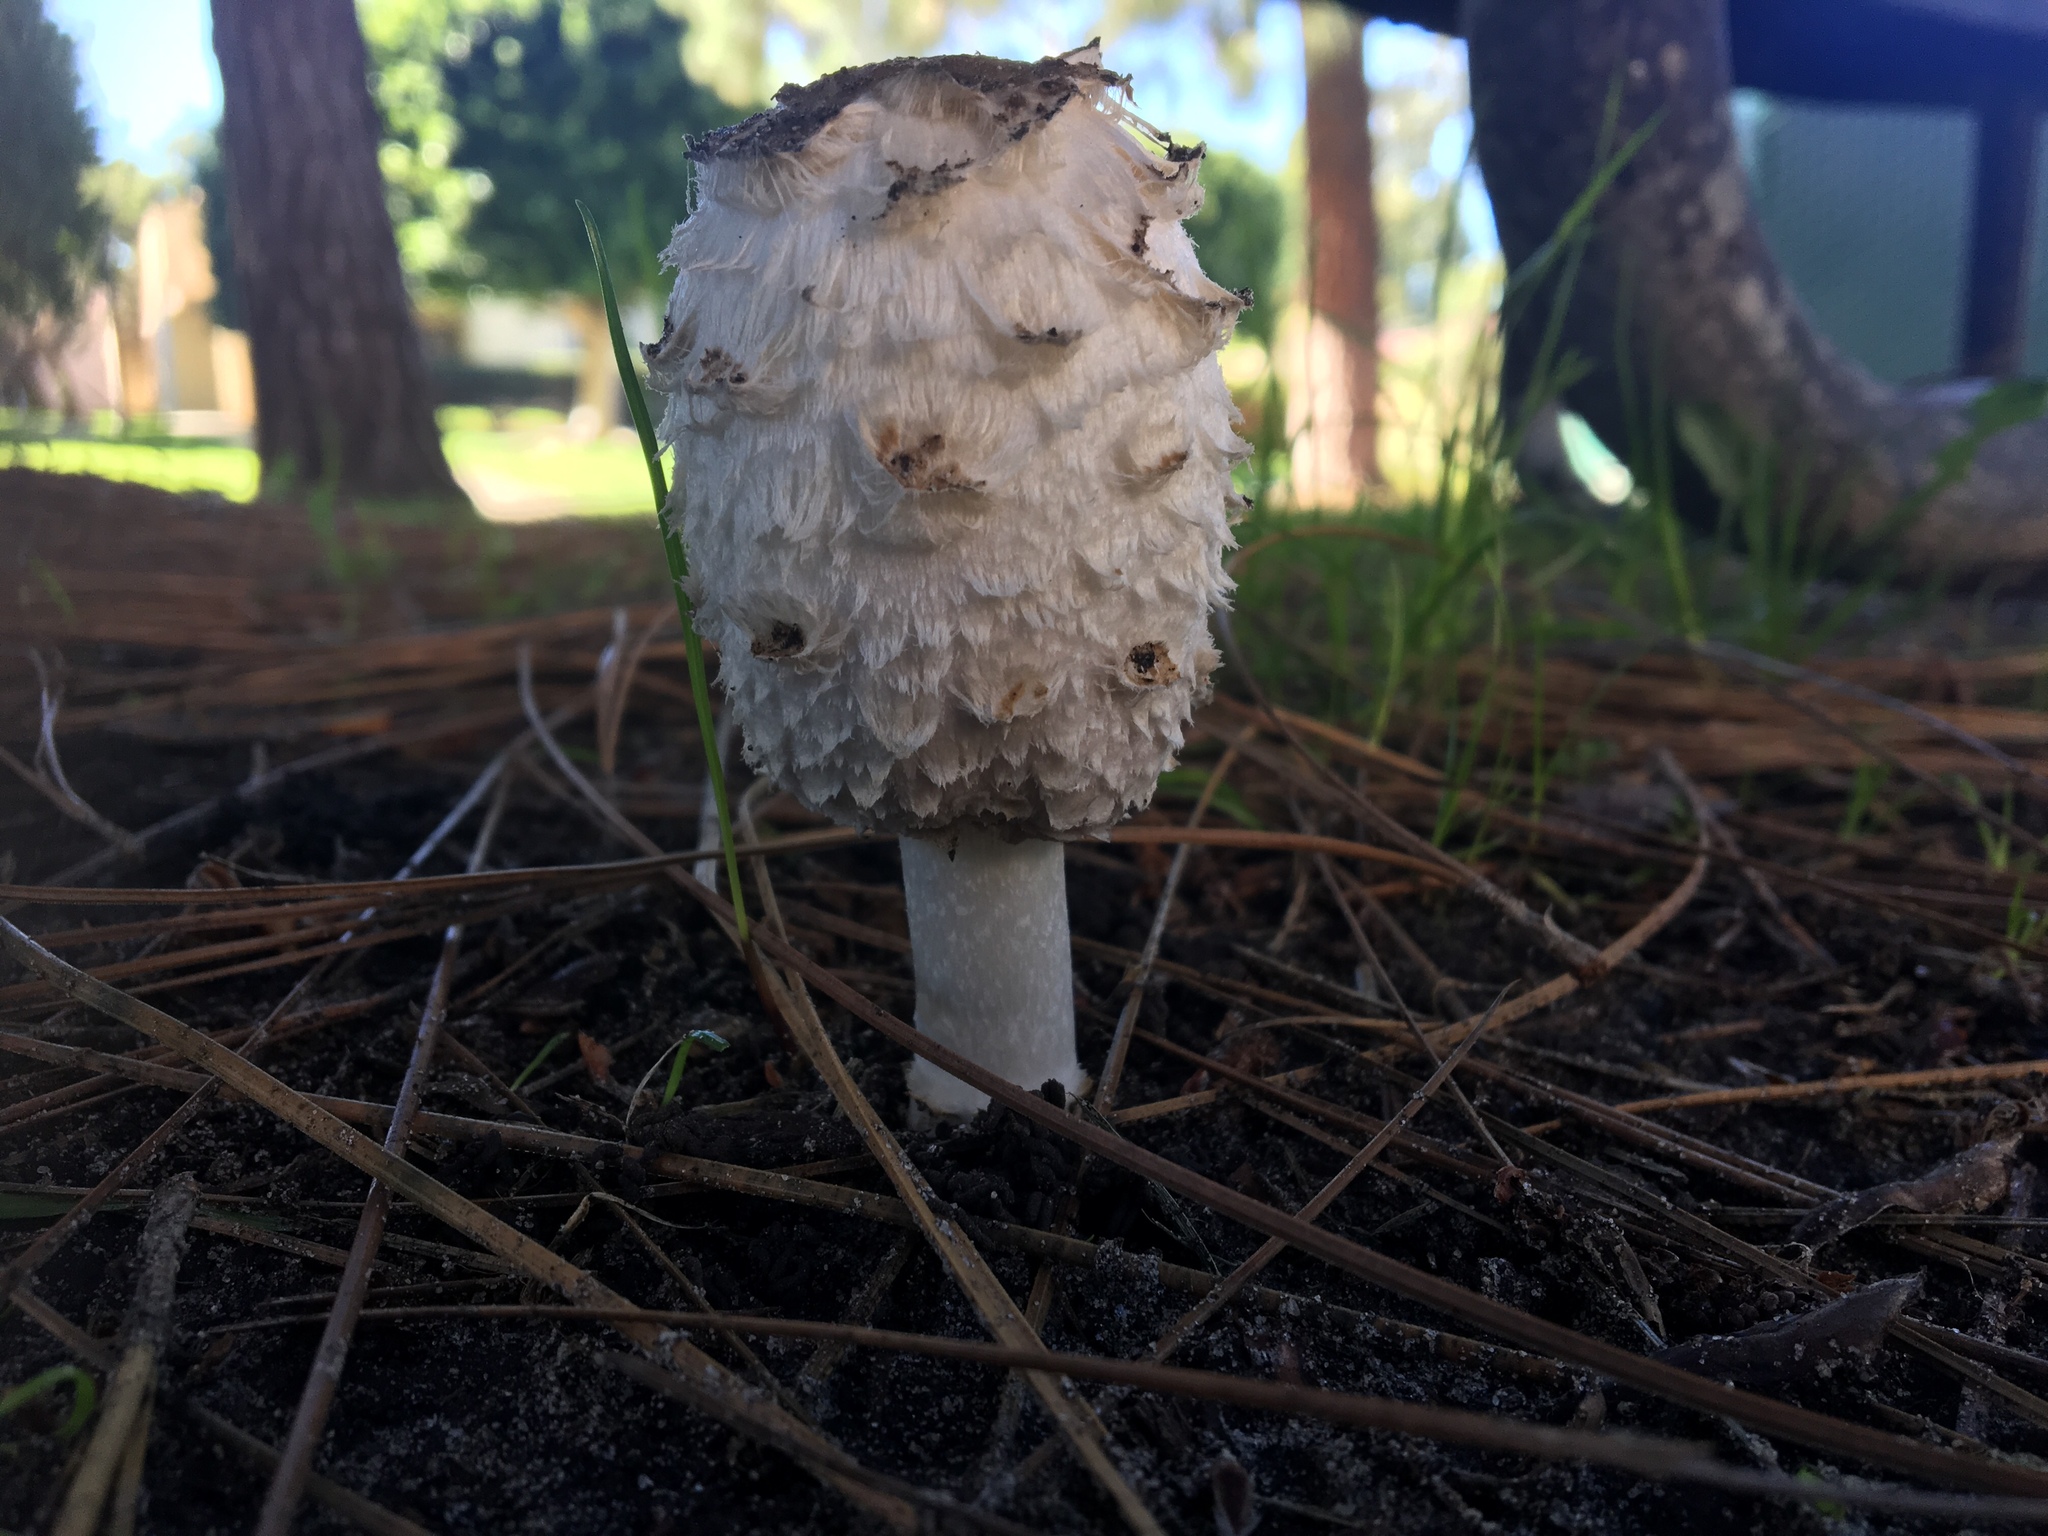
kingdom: Fungi
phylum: Basidiomycota
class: Agaricomycetes
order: Agaricales
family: Agaricaceae
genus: Coprinus
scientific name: Coprinus comatus
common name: Lawyer's wig
